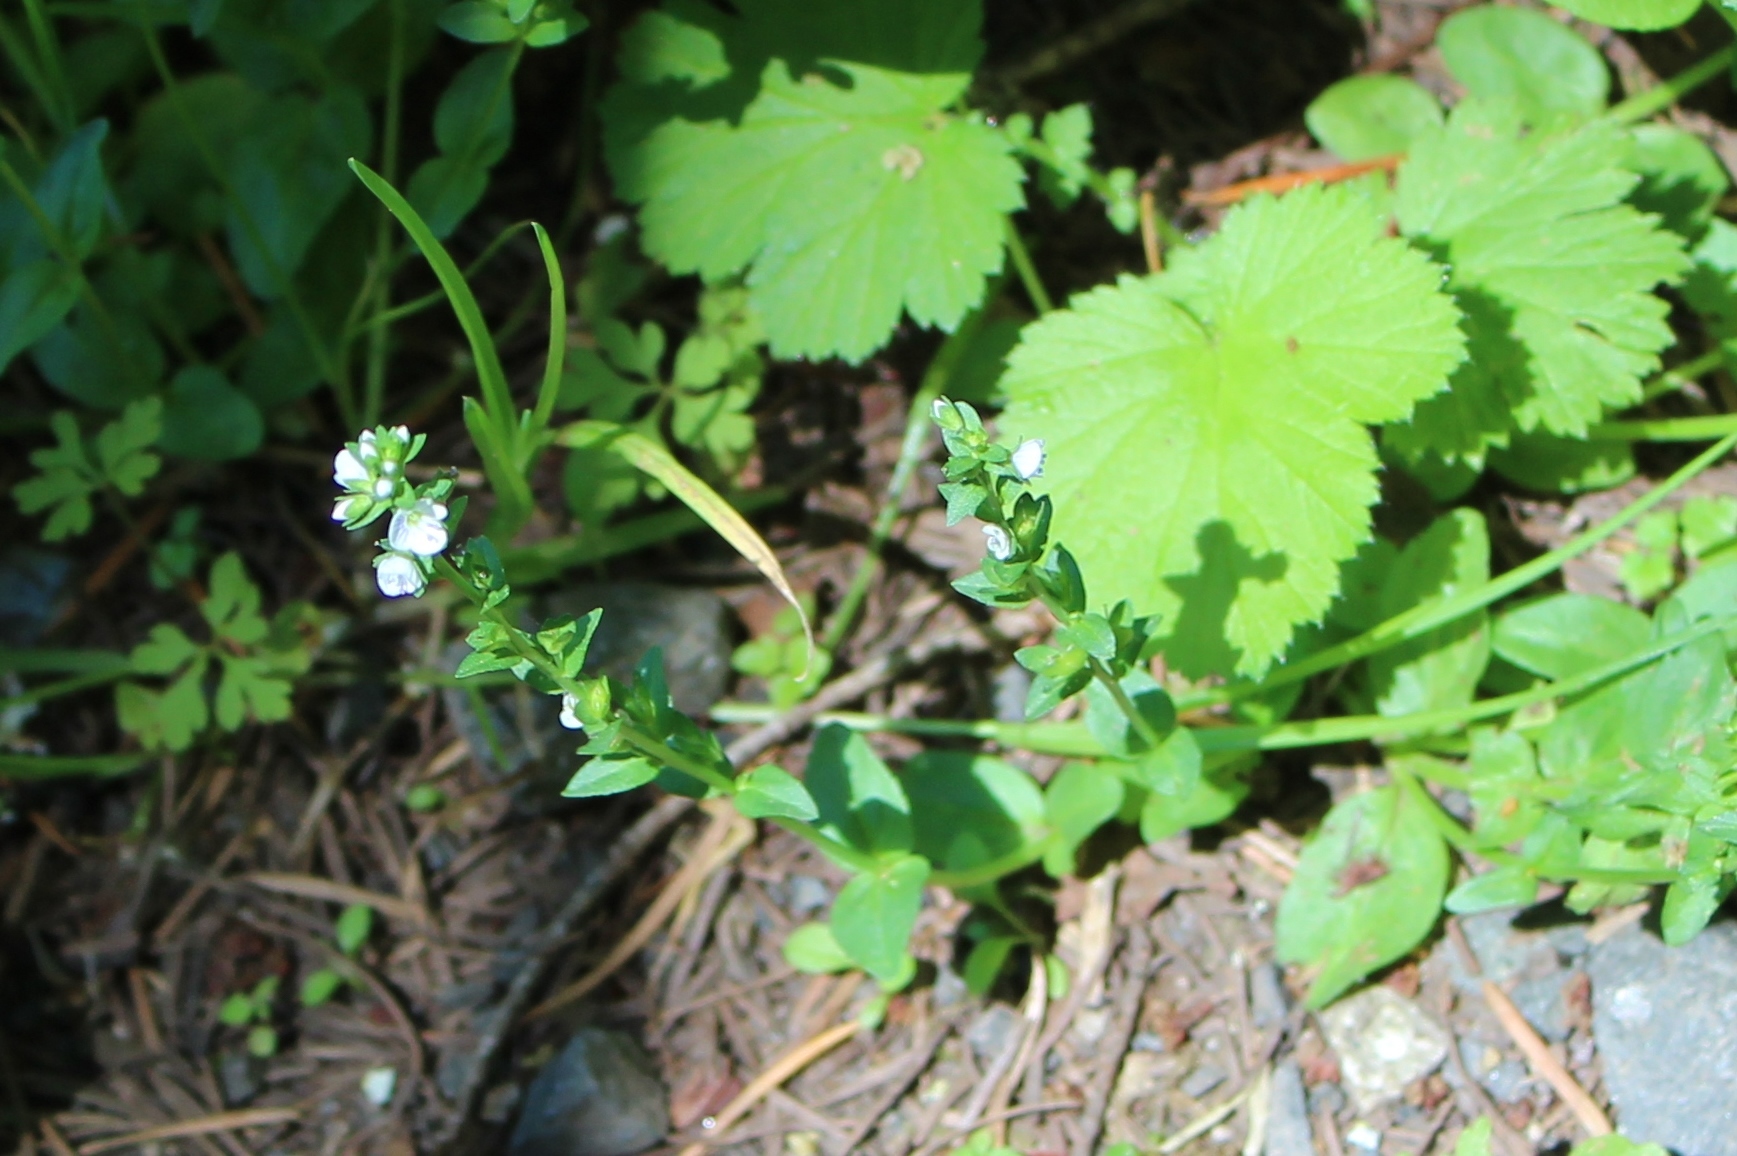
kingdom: Plantae
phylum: Tracheophyta
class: Magnoliopsida
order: Lamiales
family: Plantaginaceae
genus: Veronica
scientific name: Veronica serpyllifolia
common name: Thyme-leaved speedwell
